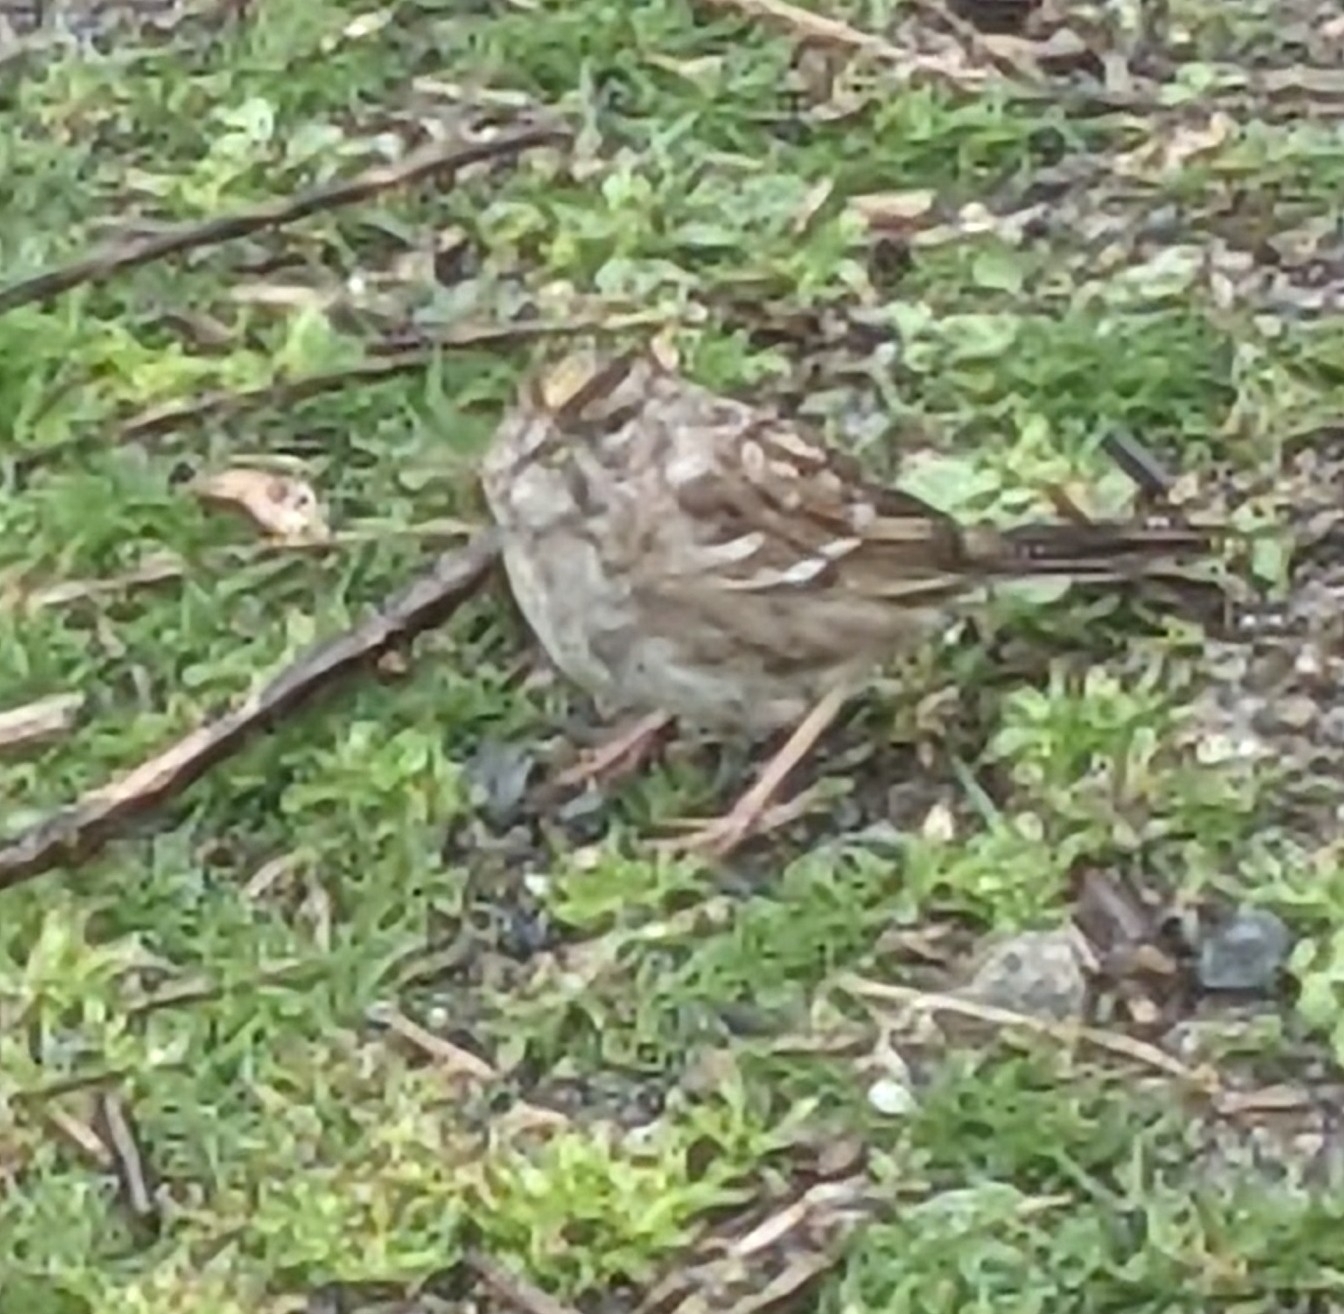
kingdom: Animalia
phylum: Chordata
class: Aves
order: Passeriformes
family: Passerellidae
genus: Zonotrichia
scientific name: Zonotrichia atricapilla
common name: Golden-crowned sparrow
